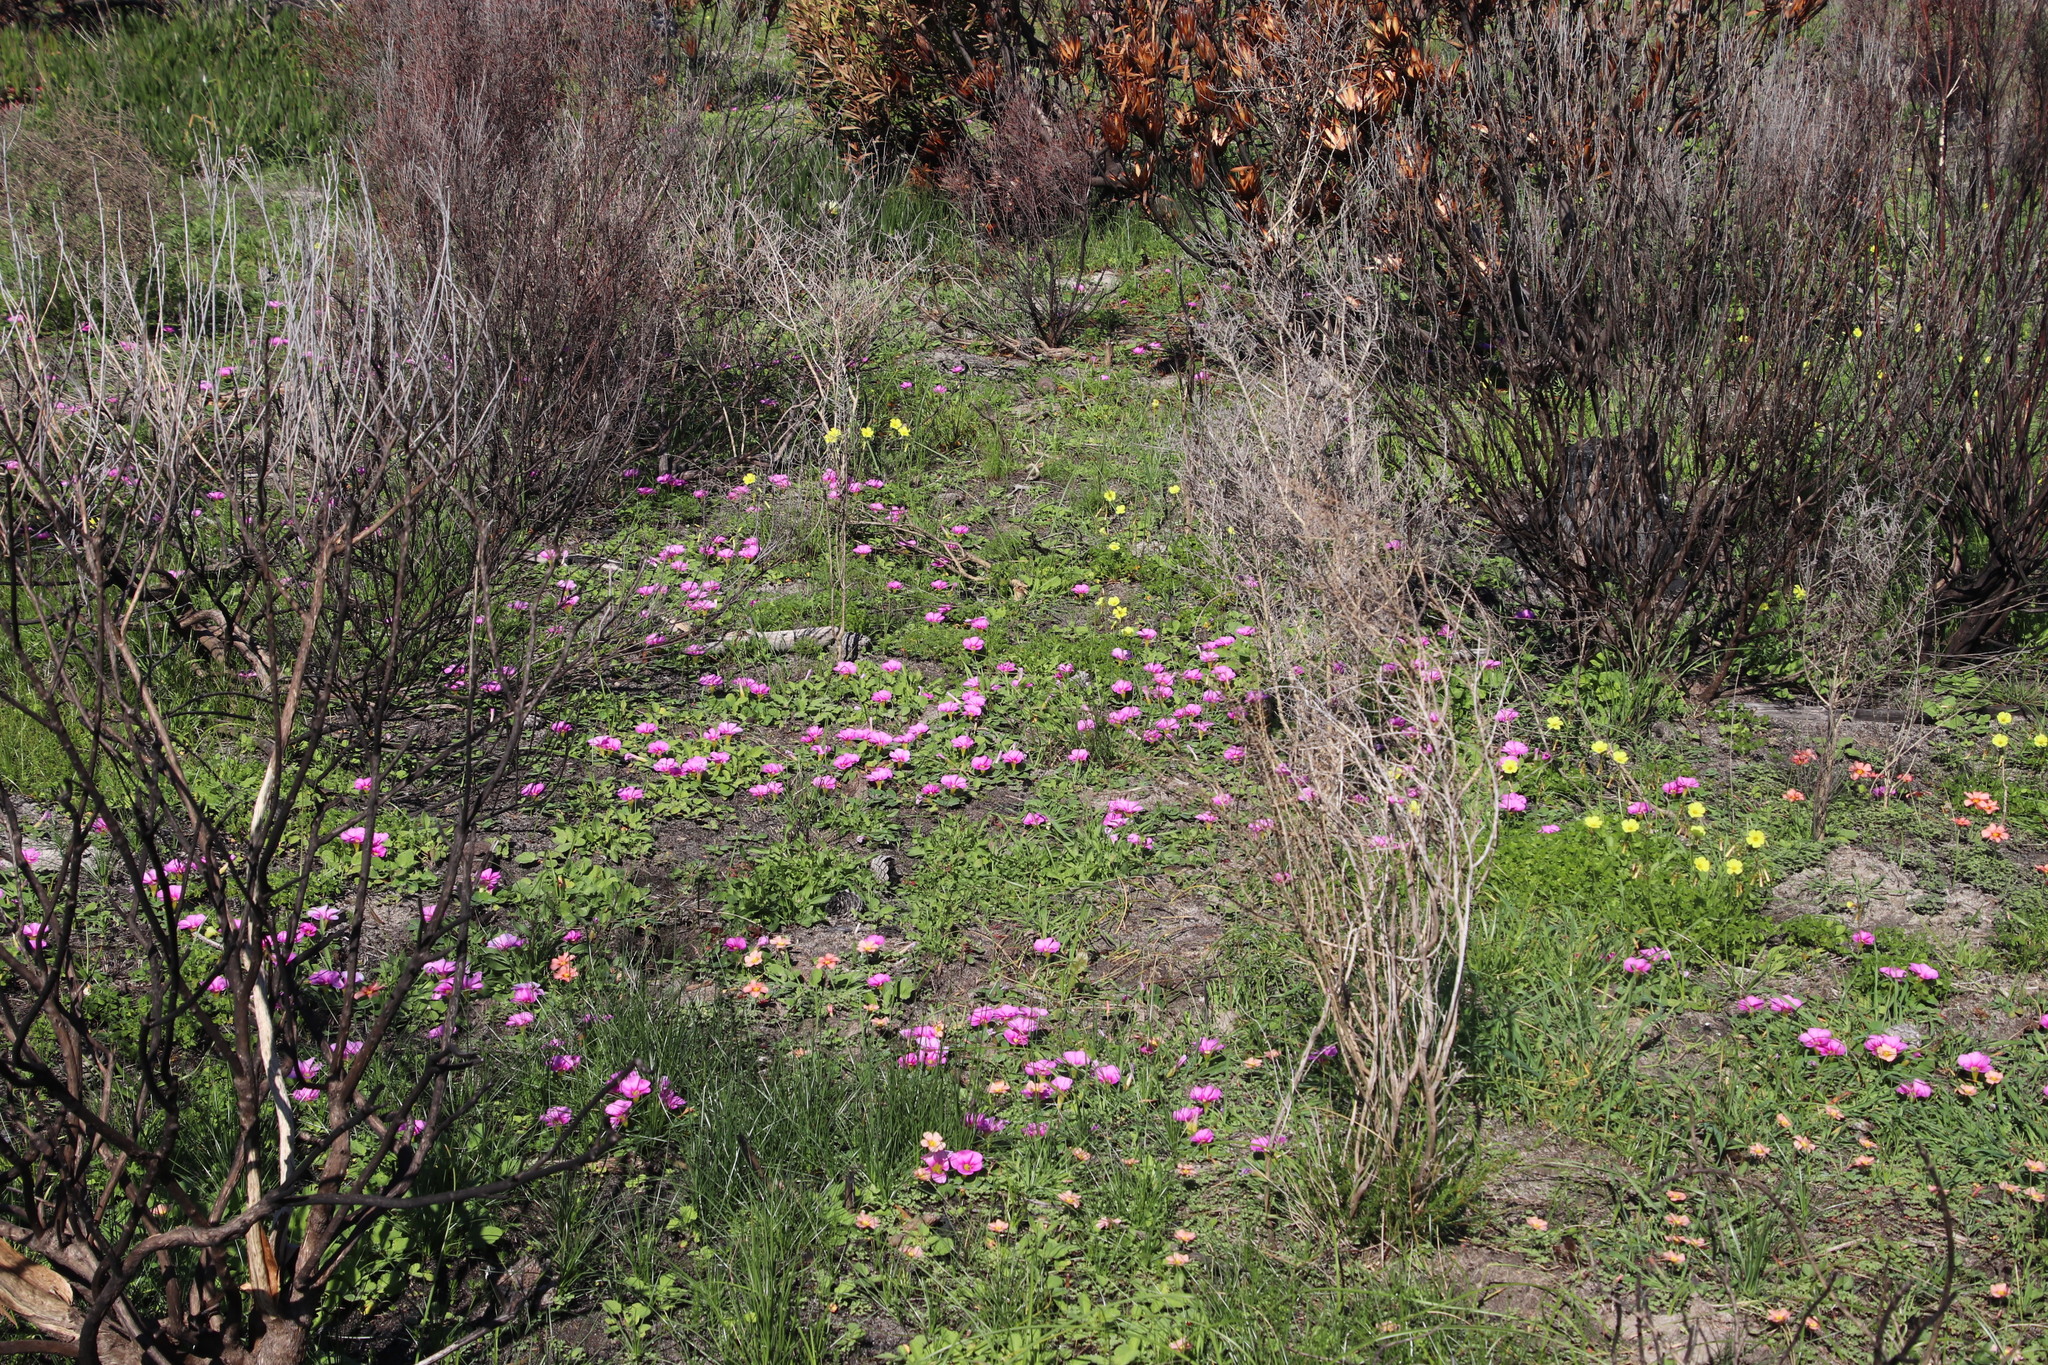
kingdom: Plantae
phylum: Tracheophyta
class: Magnoliopsida
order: Oxalidales
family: Oxalidaceae
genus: Oxalis
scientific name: Oxalis obtusa
